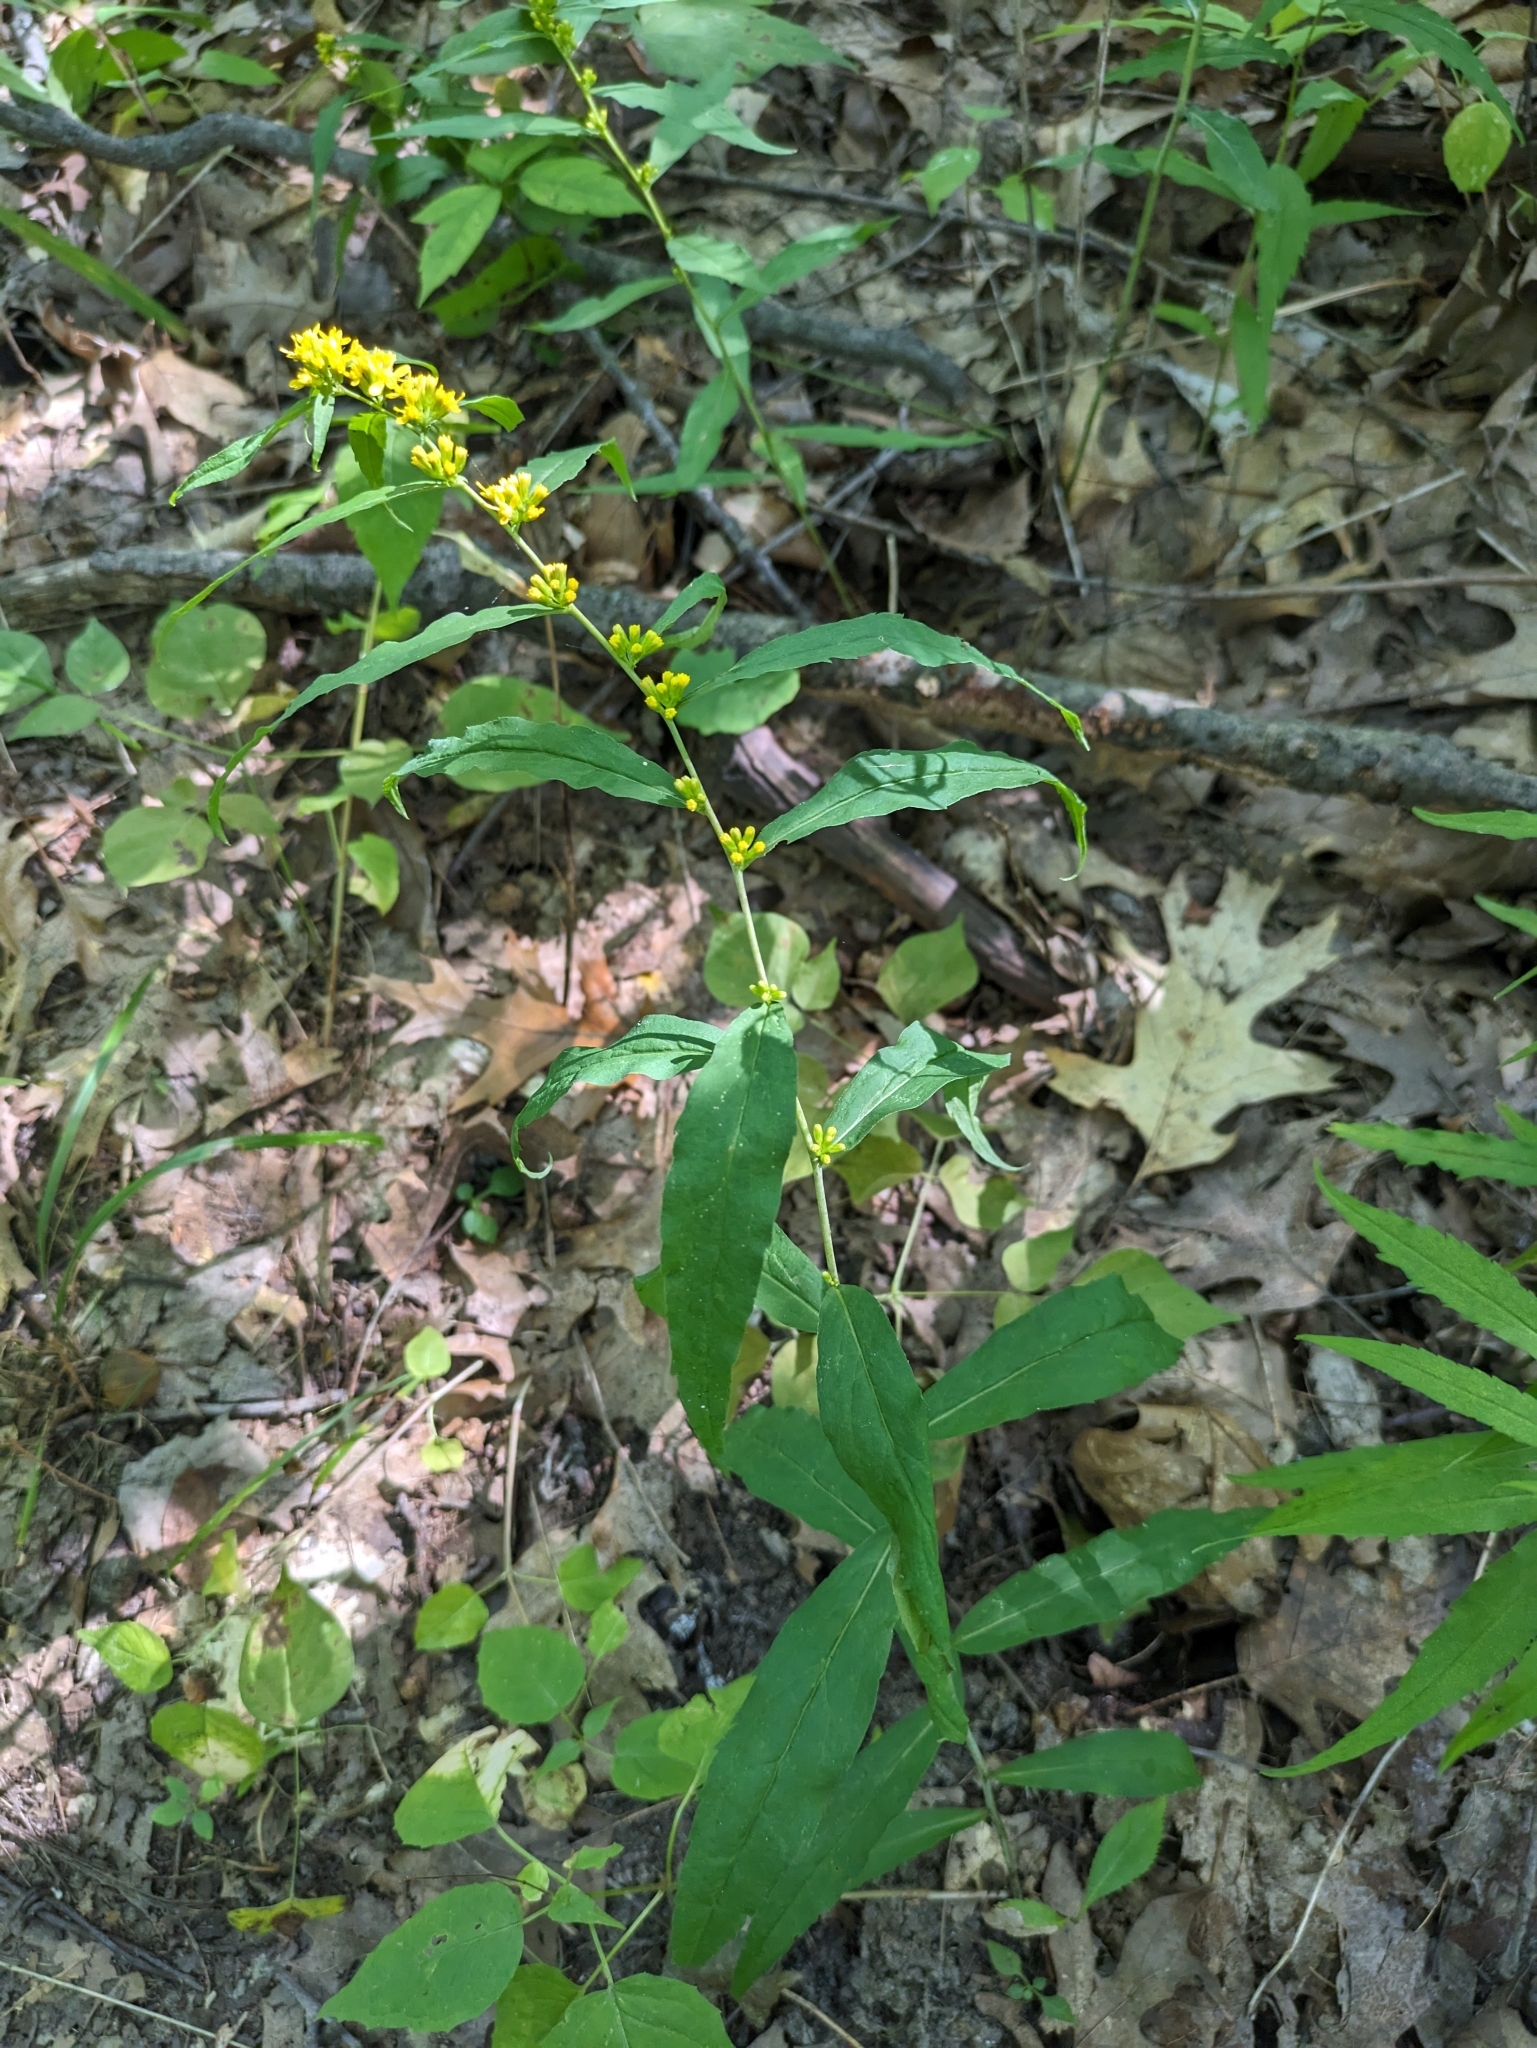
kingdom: Plantae
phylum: Tracheophyta
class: Magnoliopsida
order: Asterales
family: Asteraceae
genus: Solidago
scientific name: Solidago caesia
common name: Woodland goldenrod
